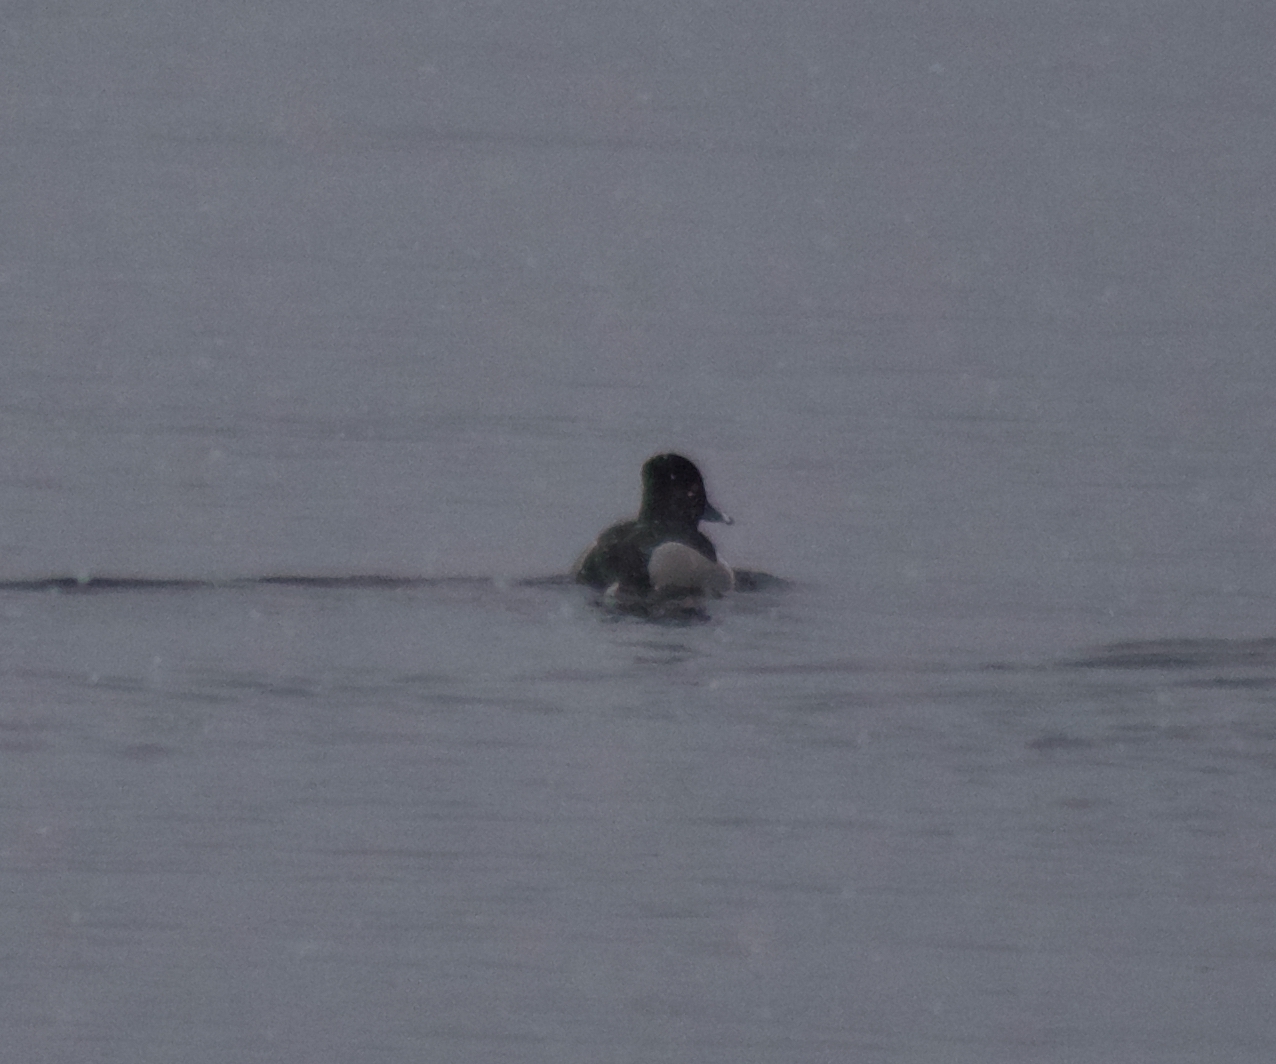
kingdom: Animalia
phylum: Chordata
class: Aves
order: Anseriformes
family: Anatidae
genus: Aythya
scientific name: Aythya collaris
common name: Ring-necked duck
